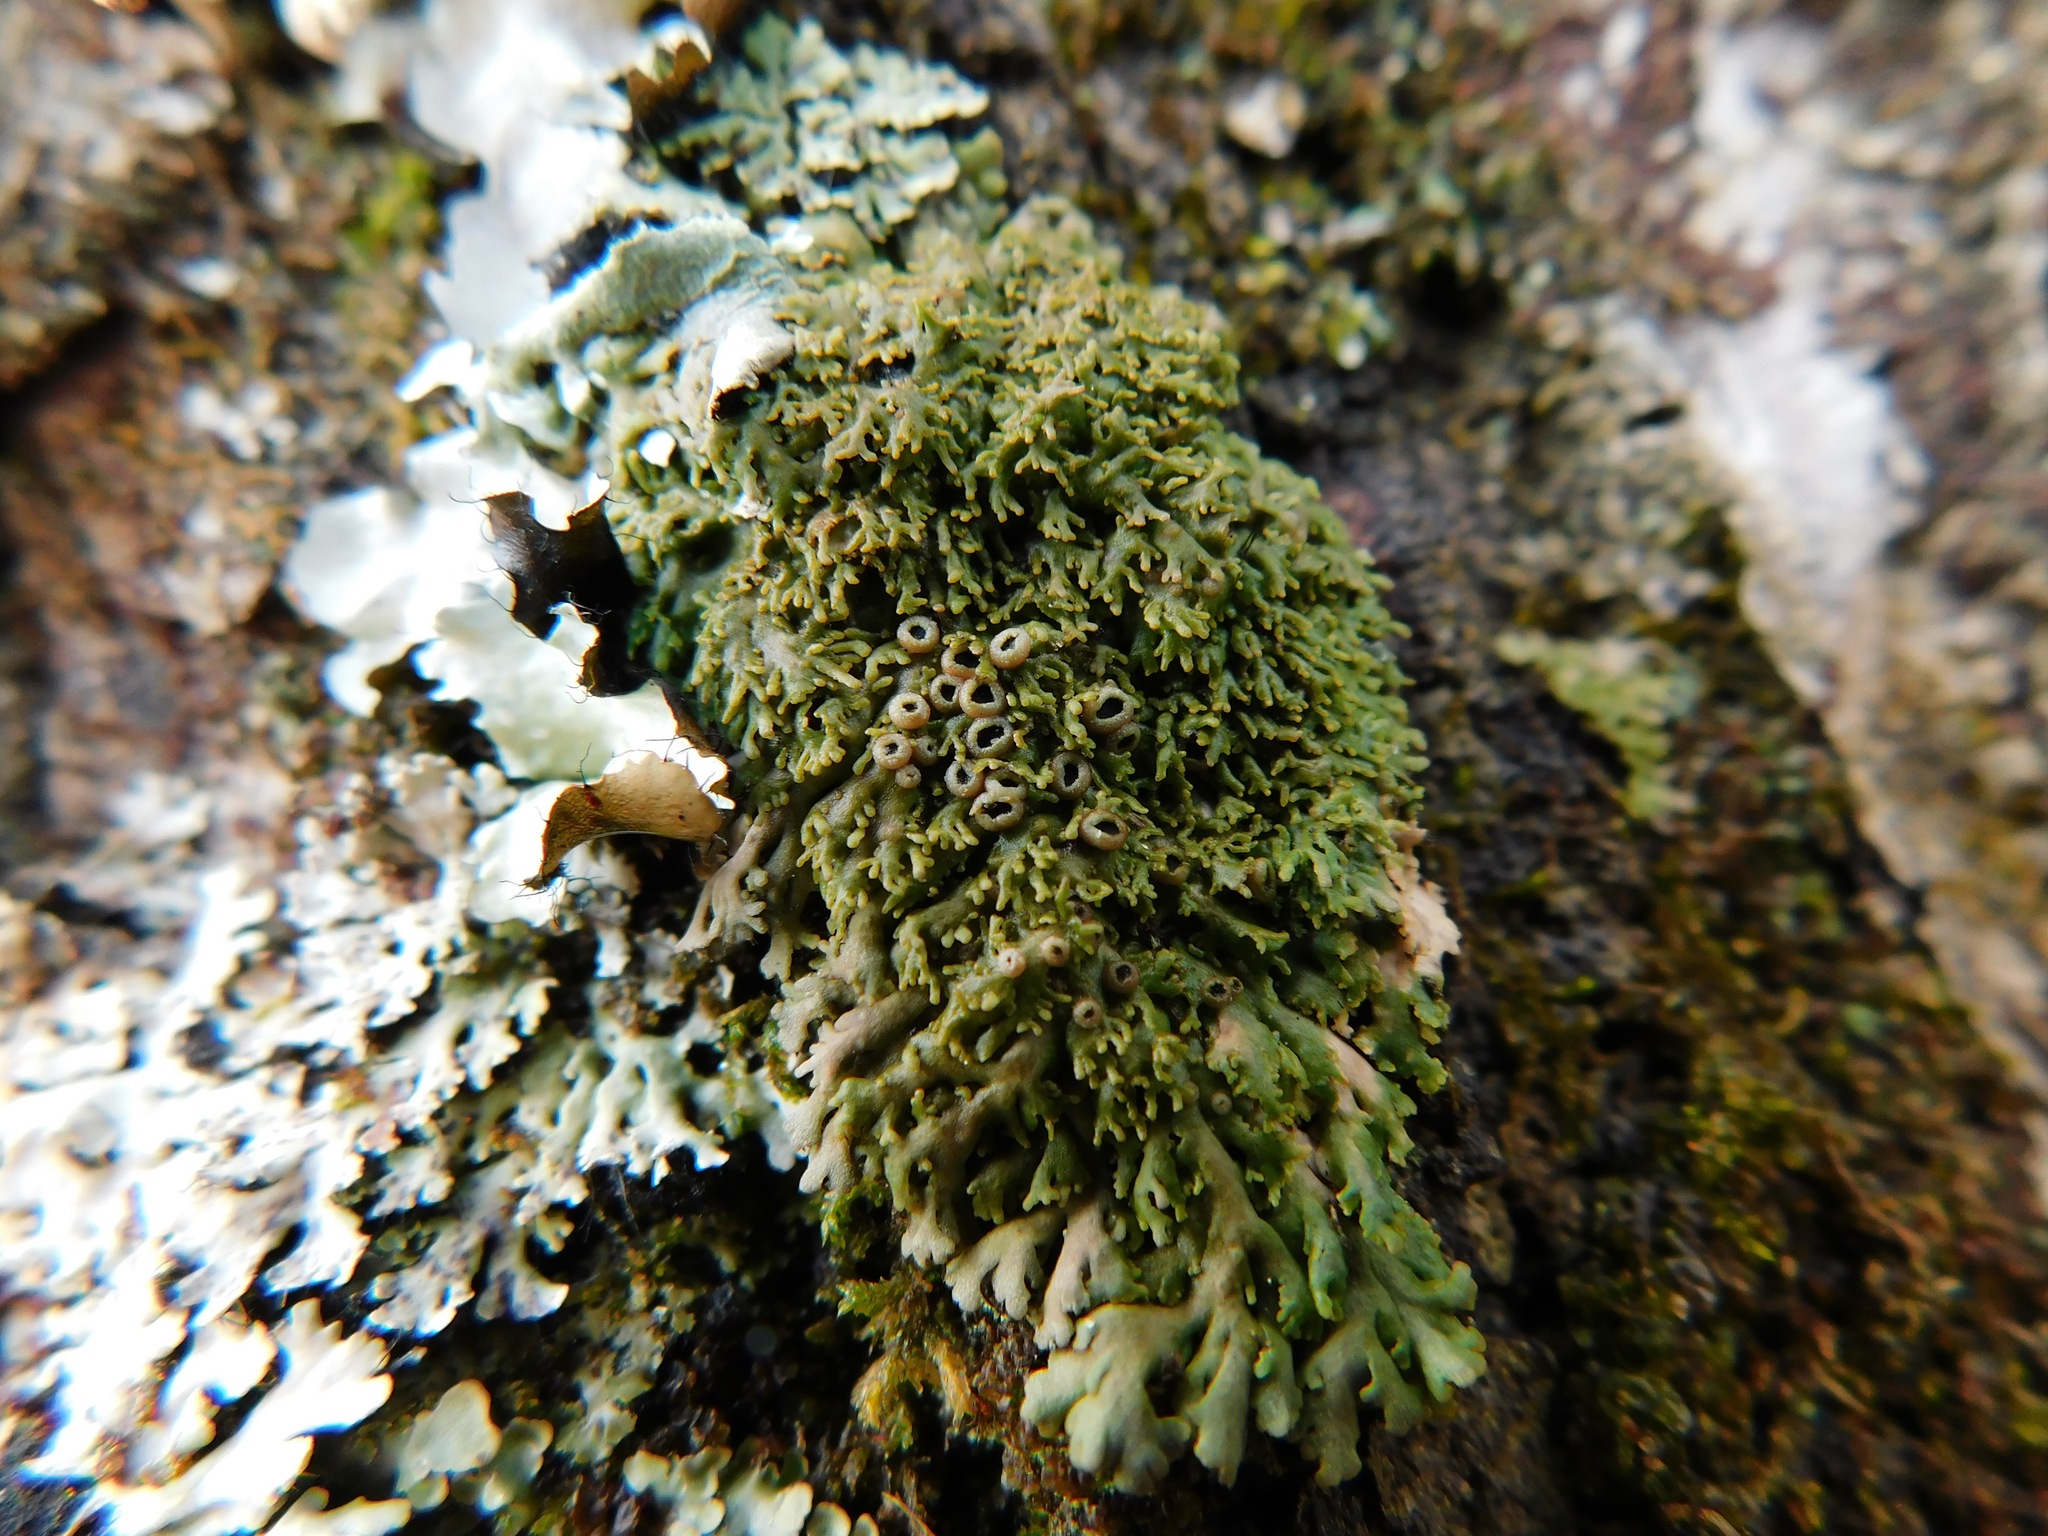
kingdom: Fungi
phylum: Ascomycota
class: Lecanoromycetes
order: Caliciales
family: Physciaceae
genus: Kurokawia
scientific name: Kurokawia palmulata
